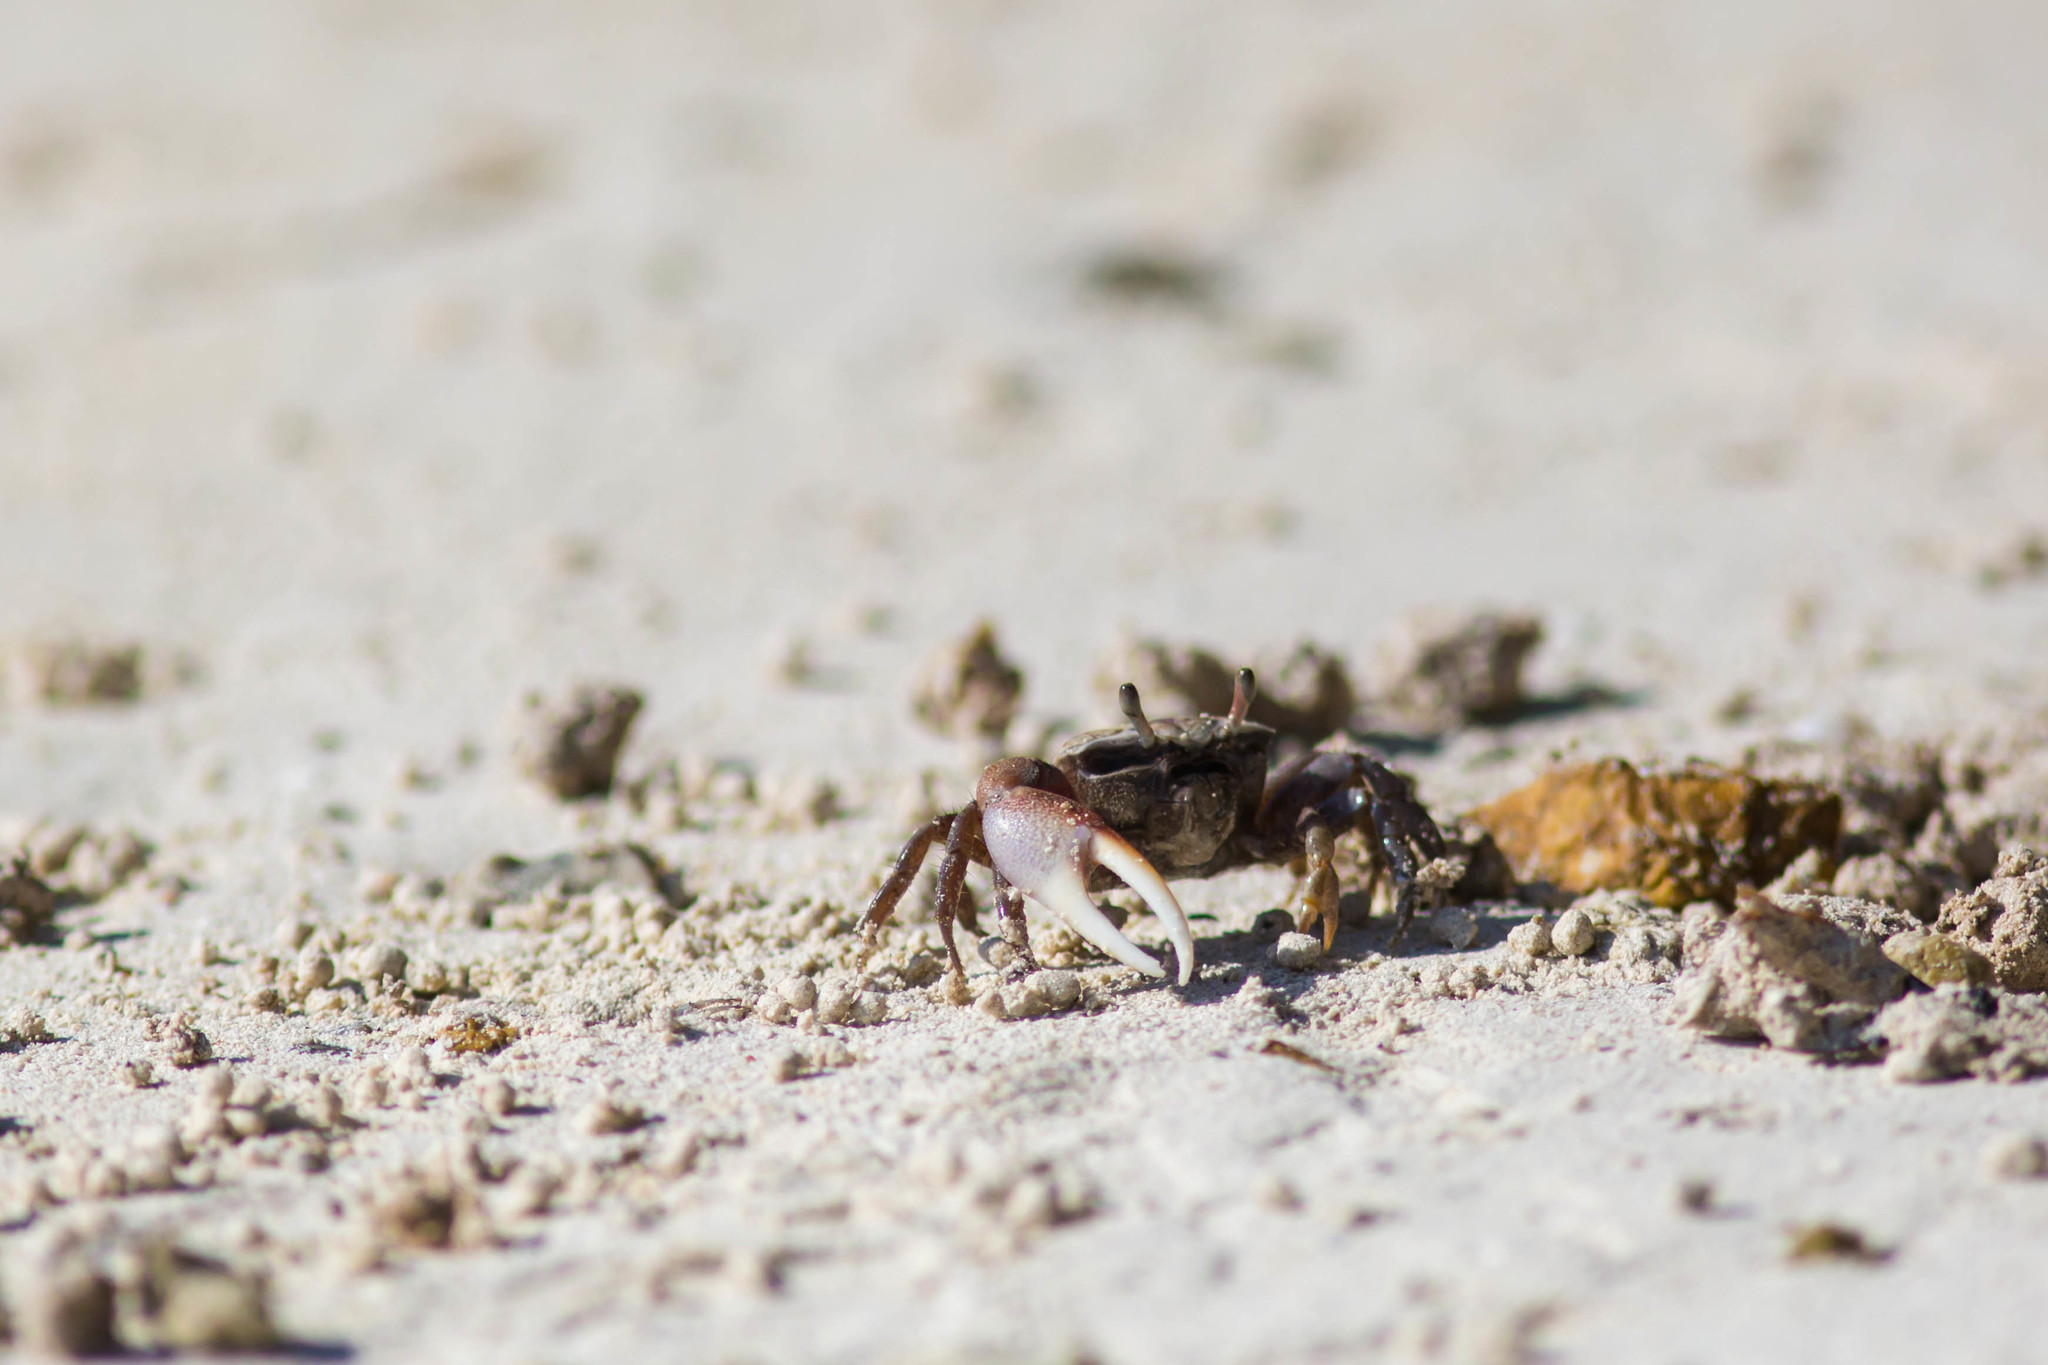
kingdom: Animalia
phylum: Arthropoda
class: Malacostraca
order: Decapoda
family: Ocypodidae
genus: Leptuca
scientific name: Leptuca pugilator
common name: Atlantic sand fiddler crab
